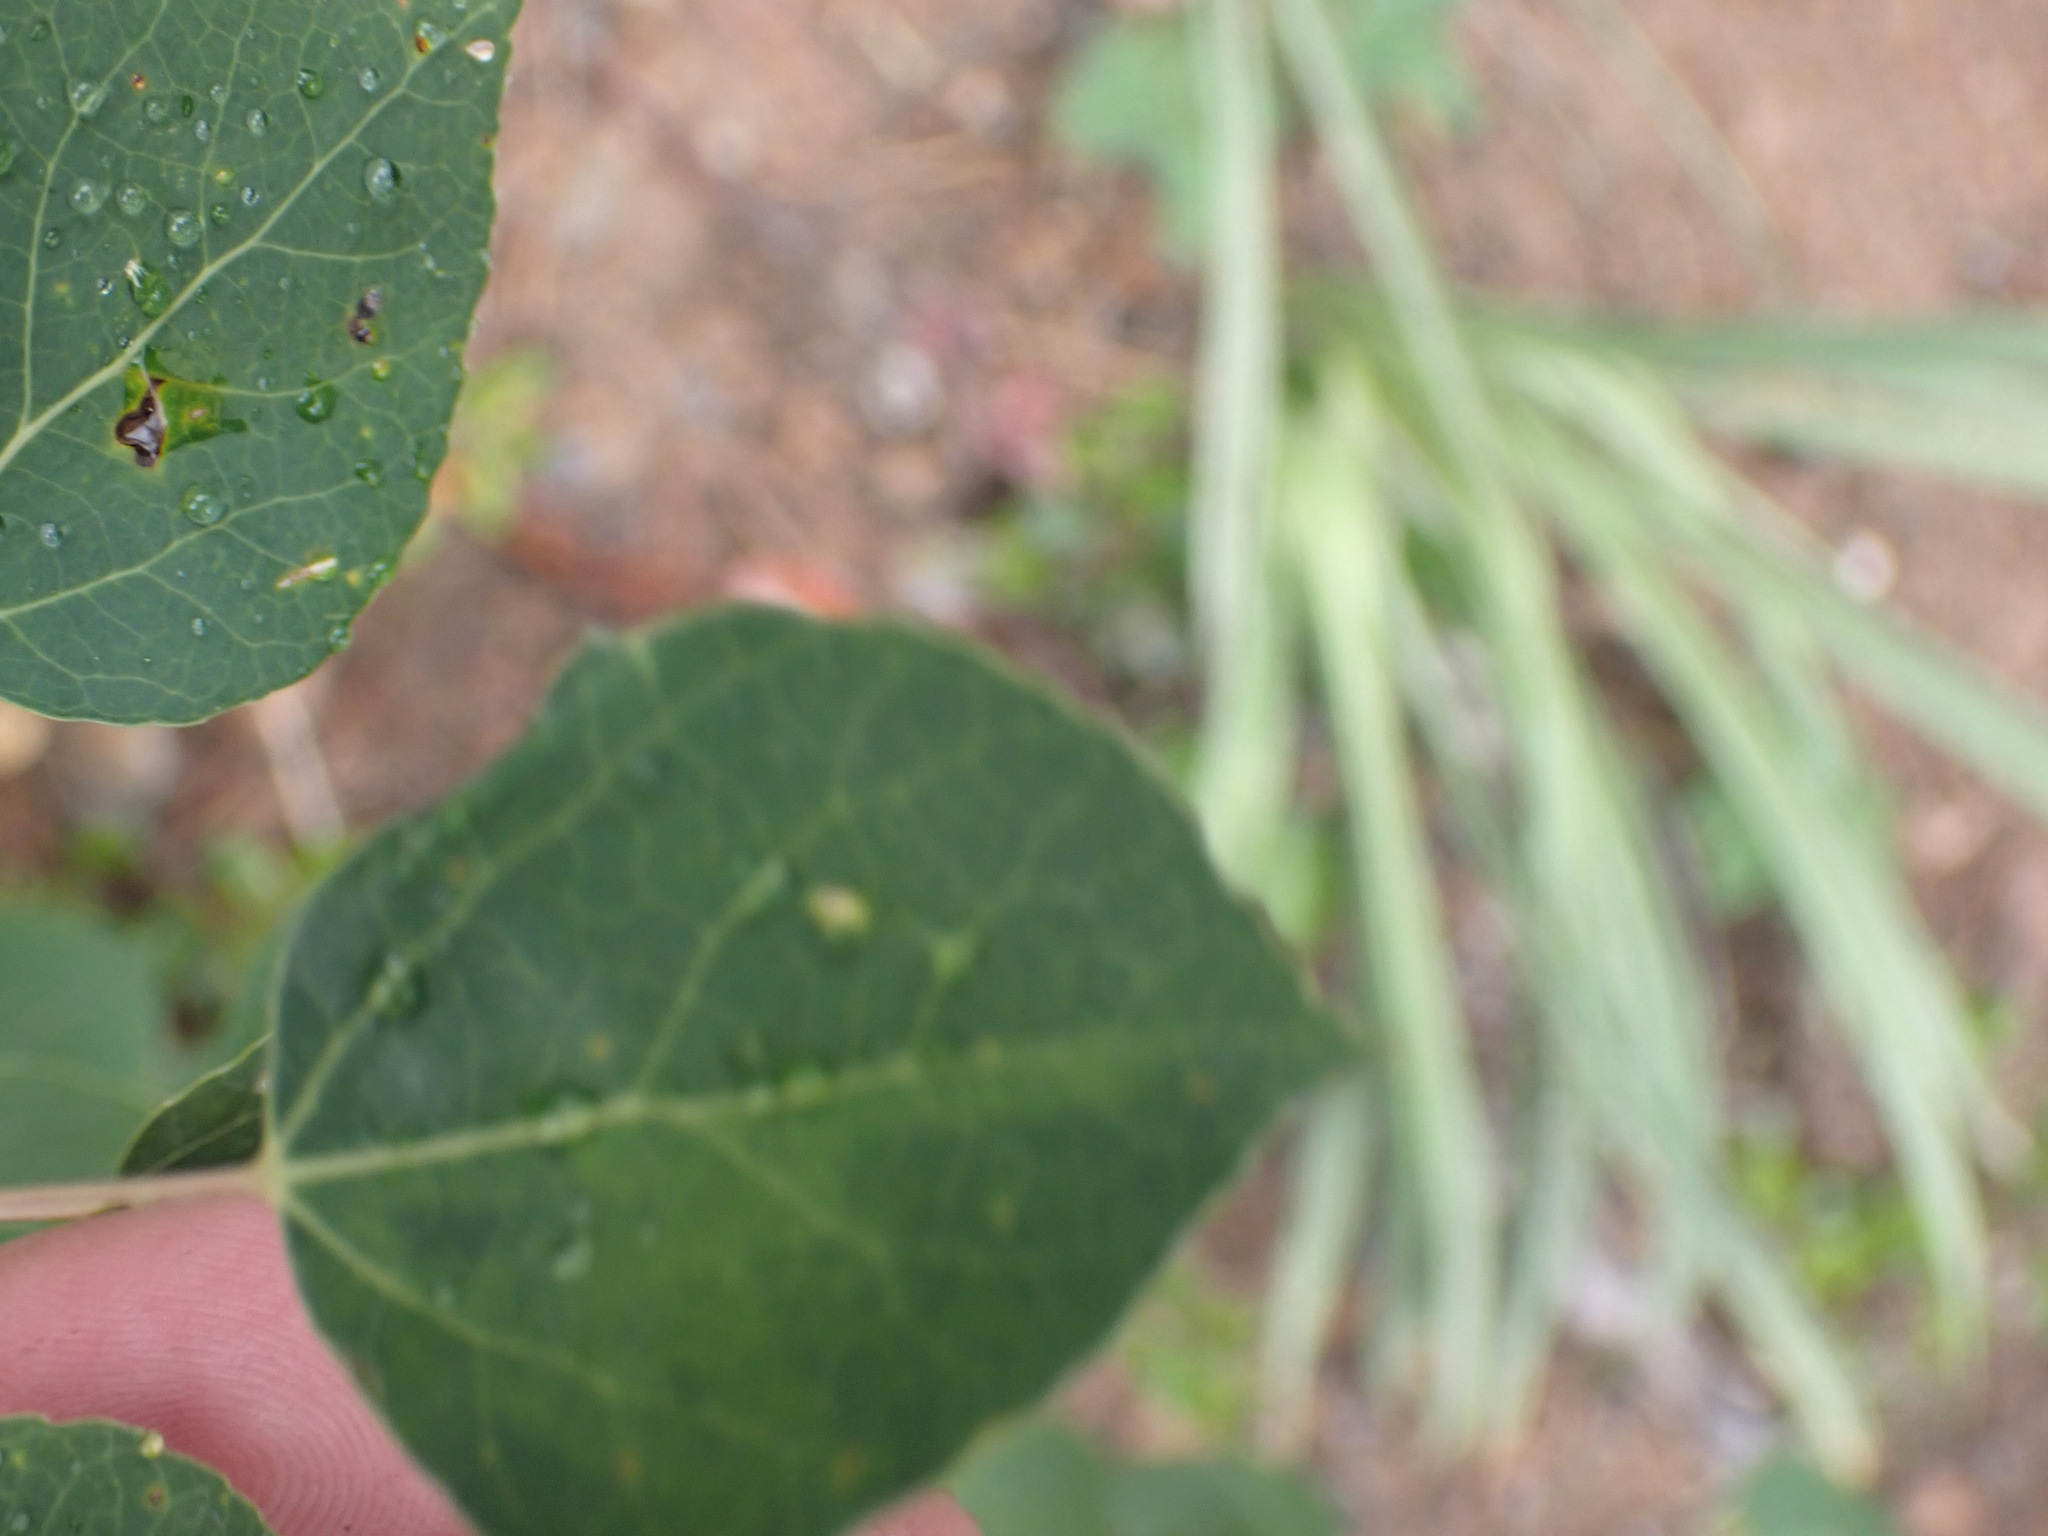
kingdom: Plantae
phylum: Tracheophyta
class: Magnoliopsida
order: Malpighiales
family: Salicaceae
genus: Populus
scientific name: Populus tremuloides
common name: Quaking aspen
